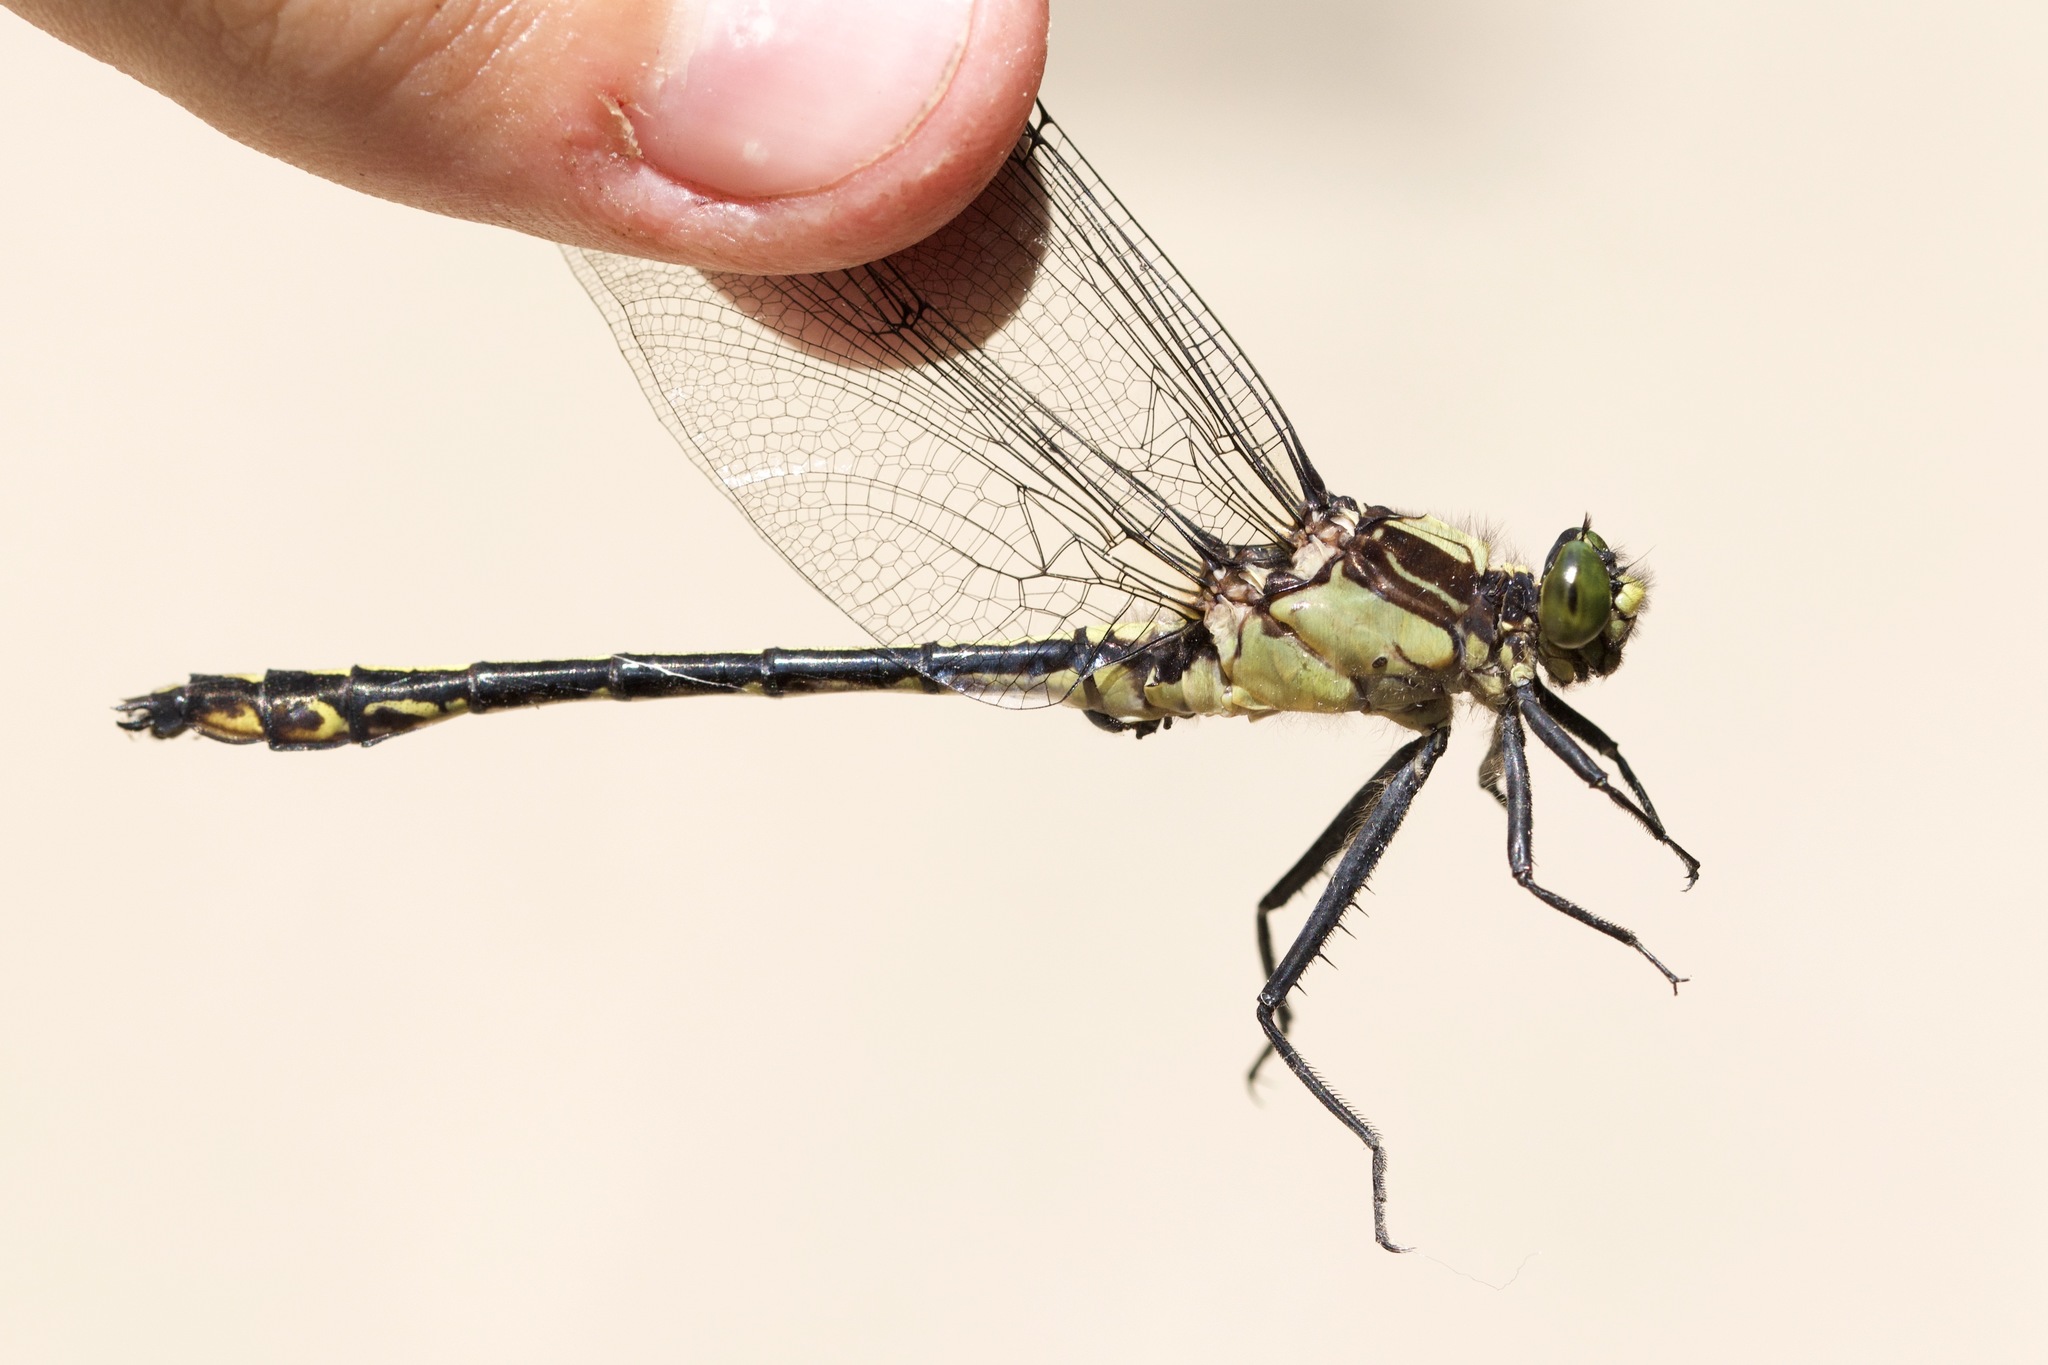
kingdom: Animalia
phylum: Arthropoda
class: Insecta
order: Odonata
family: Gomphidae
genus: Dromogomphus
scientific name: Dromogomphus spinosus
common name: Black-shouldered spinyleg
